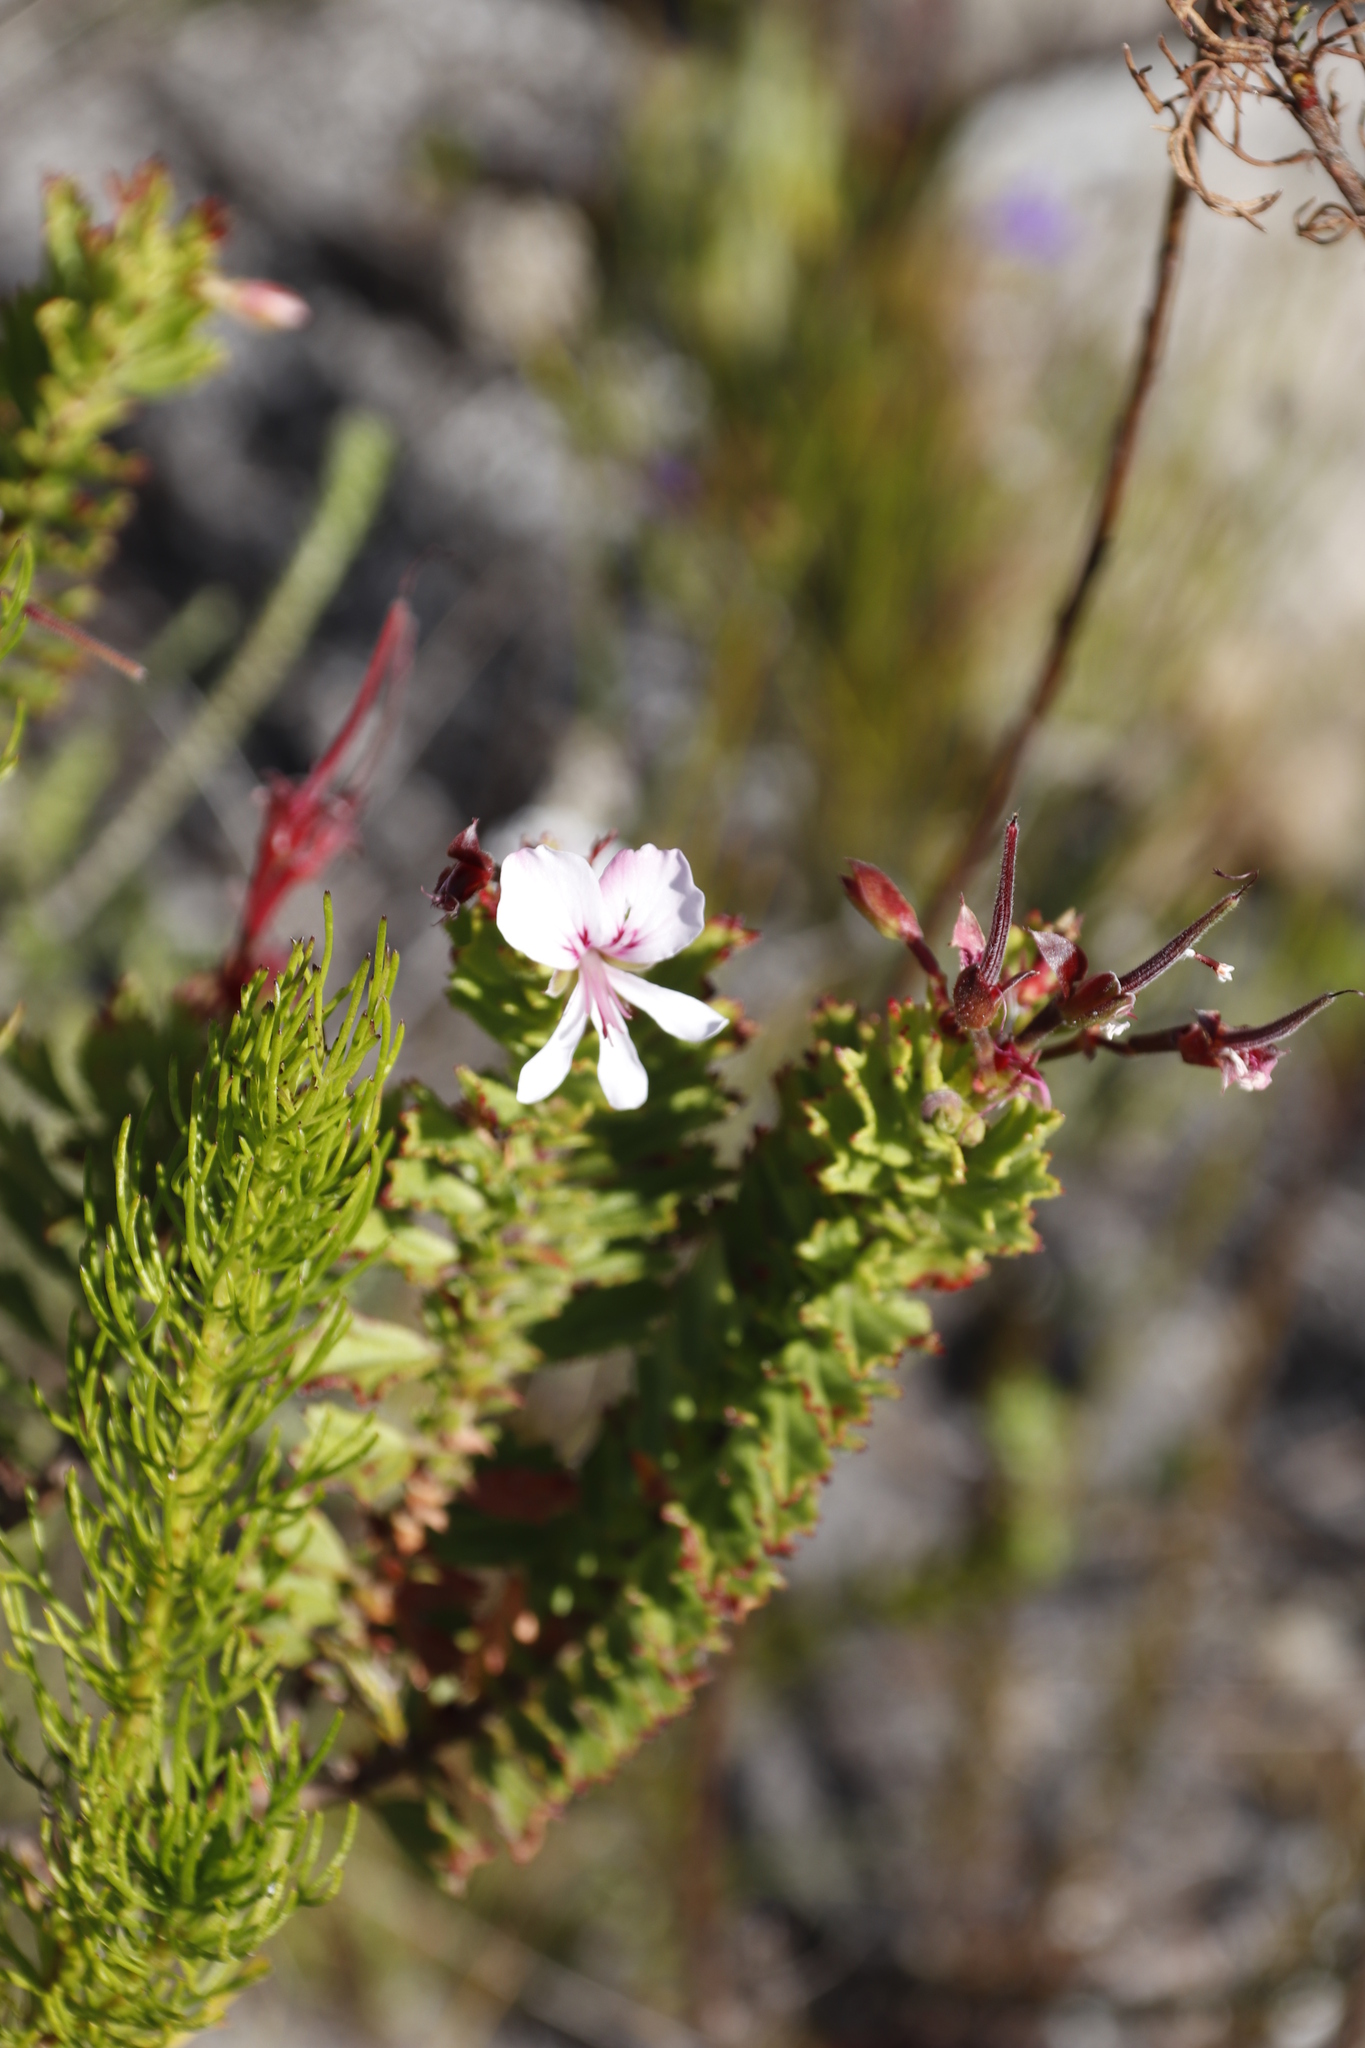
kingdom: Plantae
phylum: Tracheophyta
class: Magnoliopsida
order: Geraniales
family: Geraniaceae
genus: Pelargonium
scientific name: Pelargonium hermaniifolium
